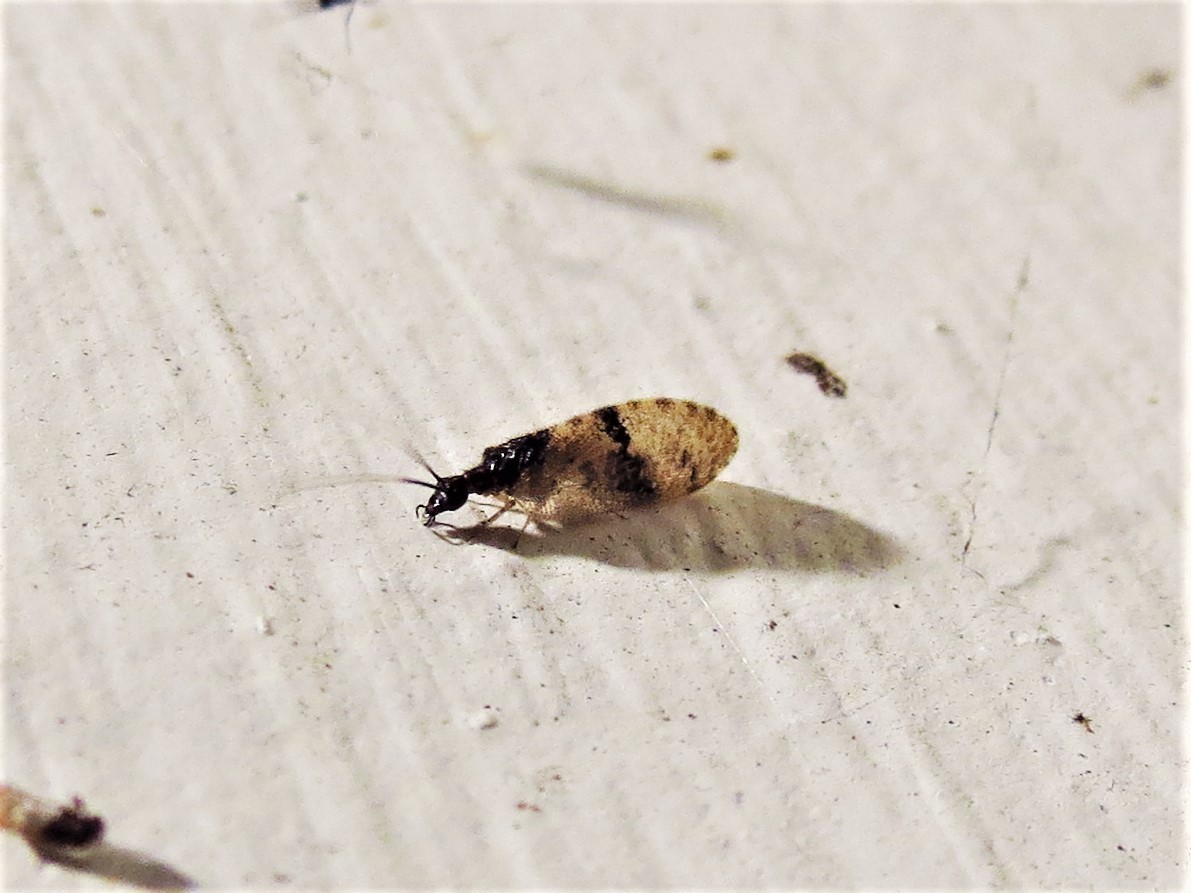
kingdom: Animalia
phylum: Arthropoda
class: Insecta
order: Neuroptera
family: Hemerobiidae
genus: Sympherobius
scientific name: Sympherobius barberi
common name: Brown lacewing
